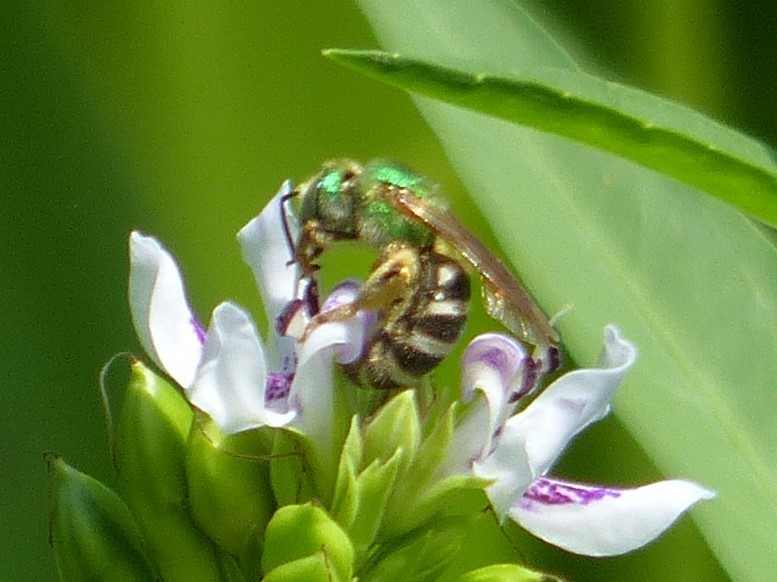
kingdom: Animalia
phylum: Arthropoda
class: Insecta
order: Hymenoptera
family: Halictidae
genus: Agapostemon
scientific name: Agapostemon virescens
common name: Bicolored striped sweat bee
